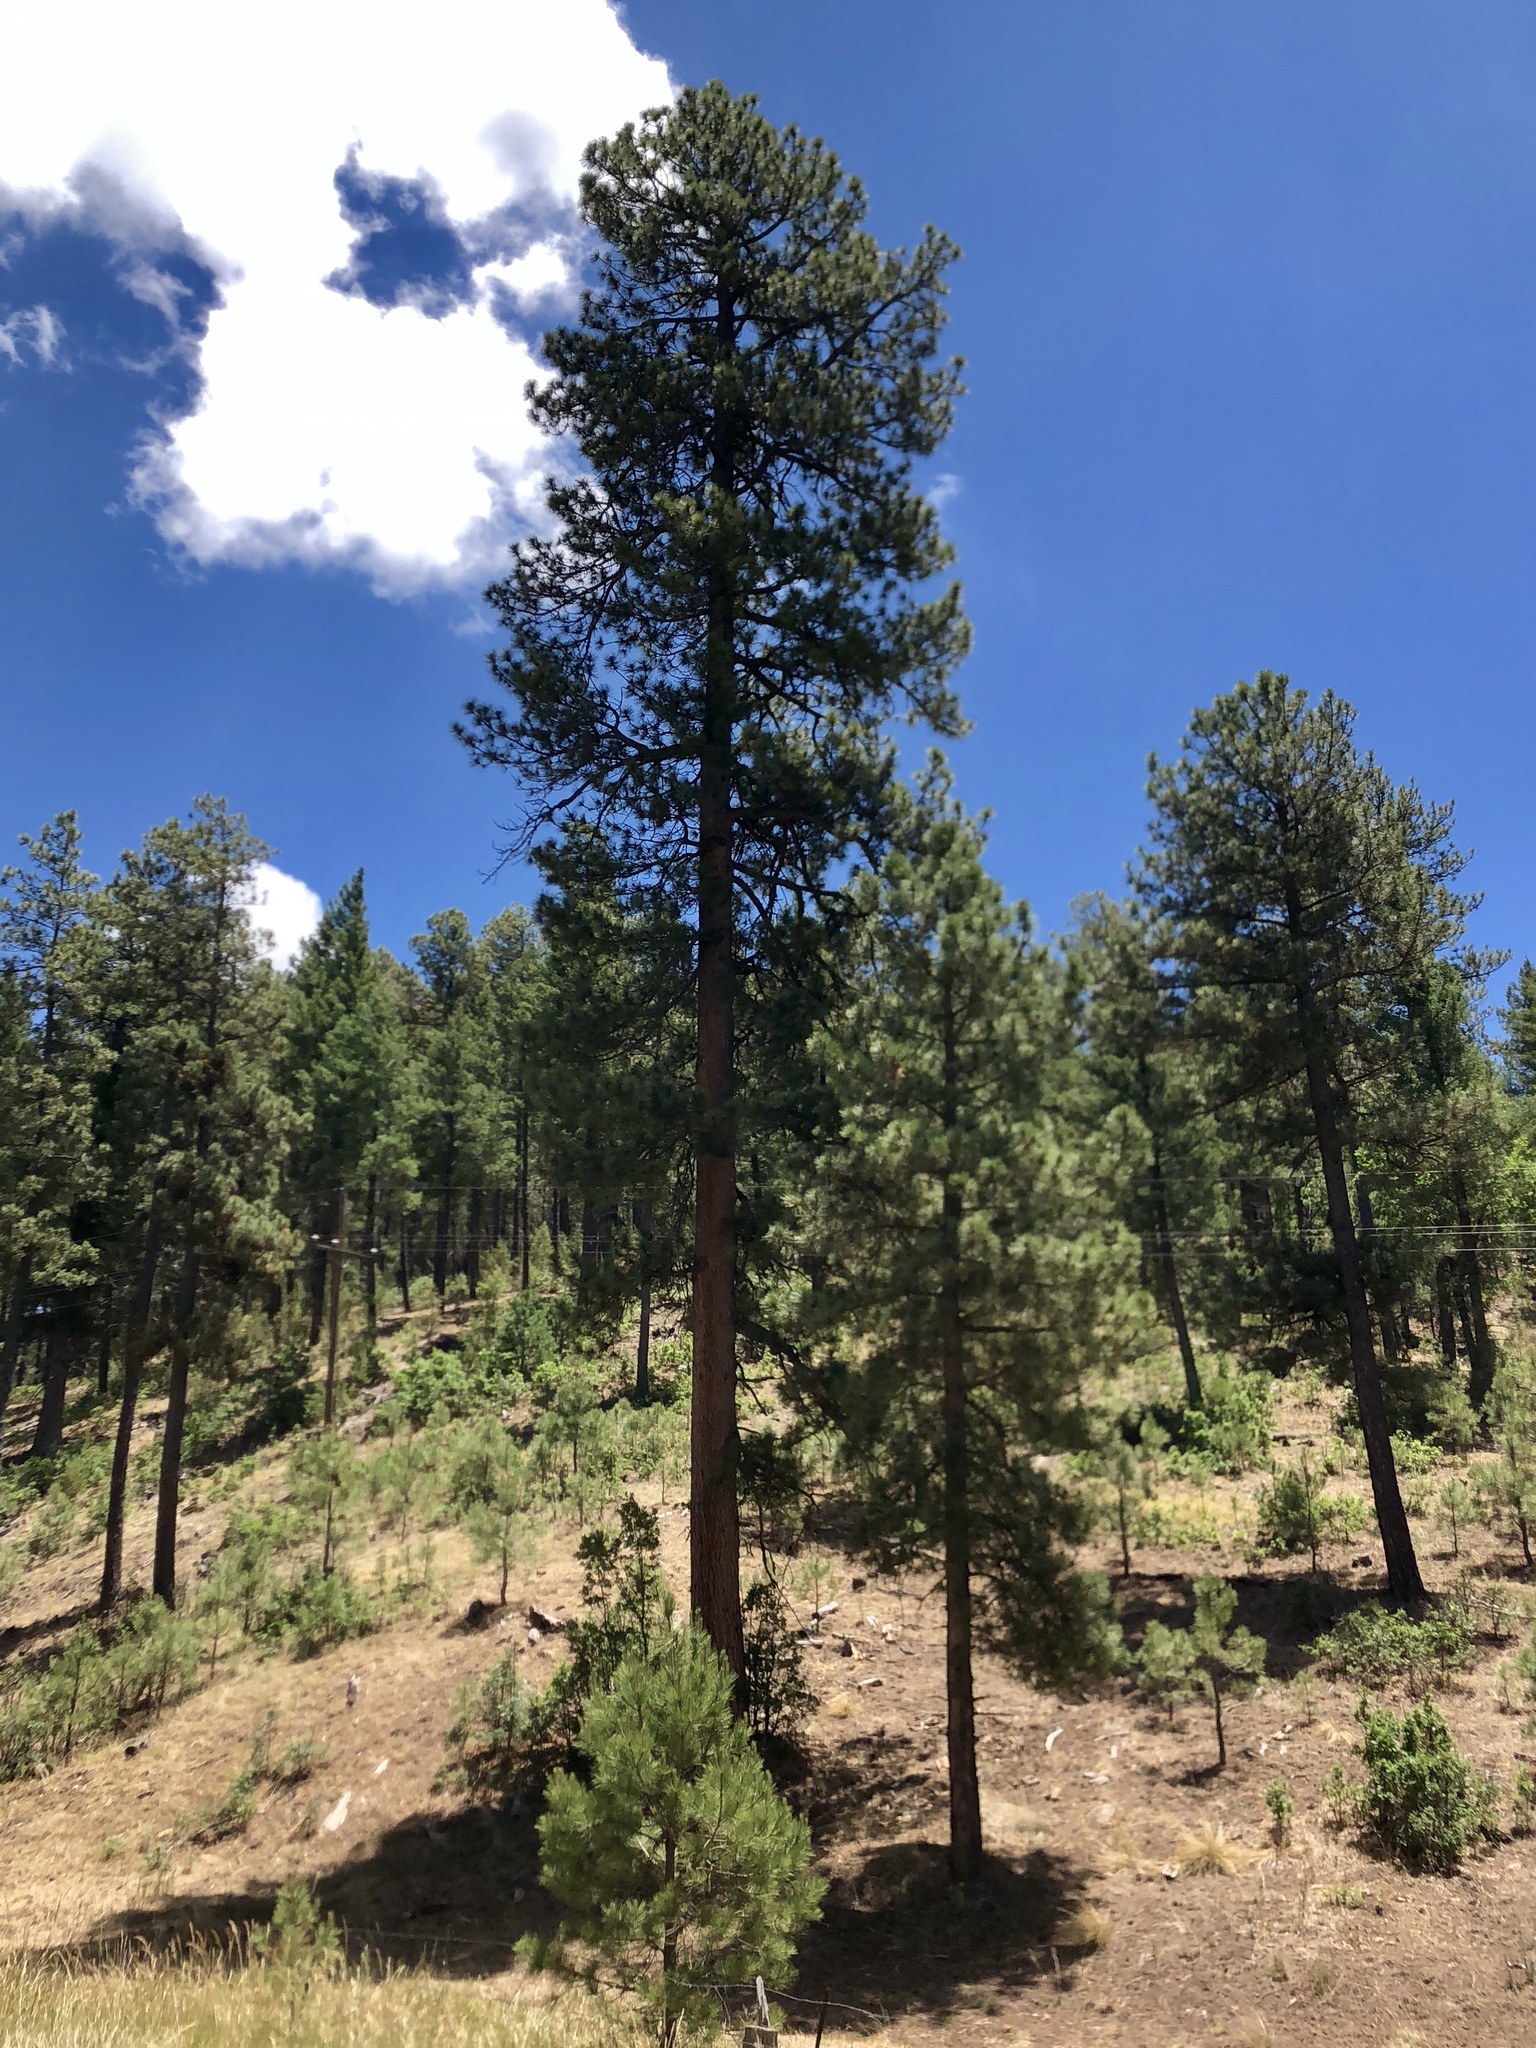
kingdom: Plantae
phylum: Tracheophyta
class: Pinopsida
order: Pinales
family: Pinaceae
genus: Pinus
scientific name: Pinus ponderosa
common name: Western yellow-pine
